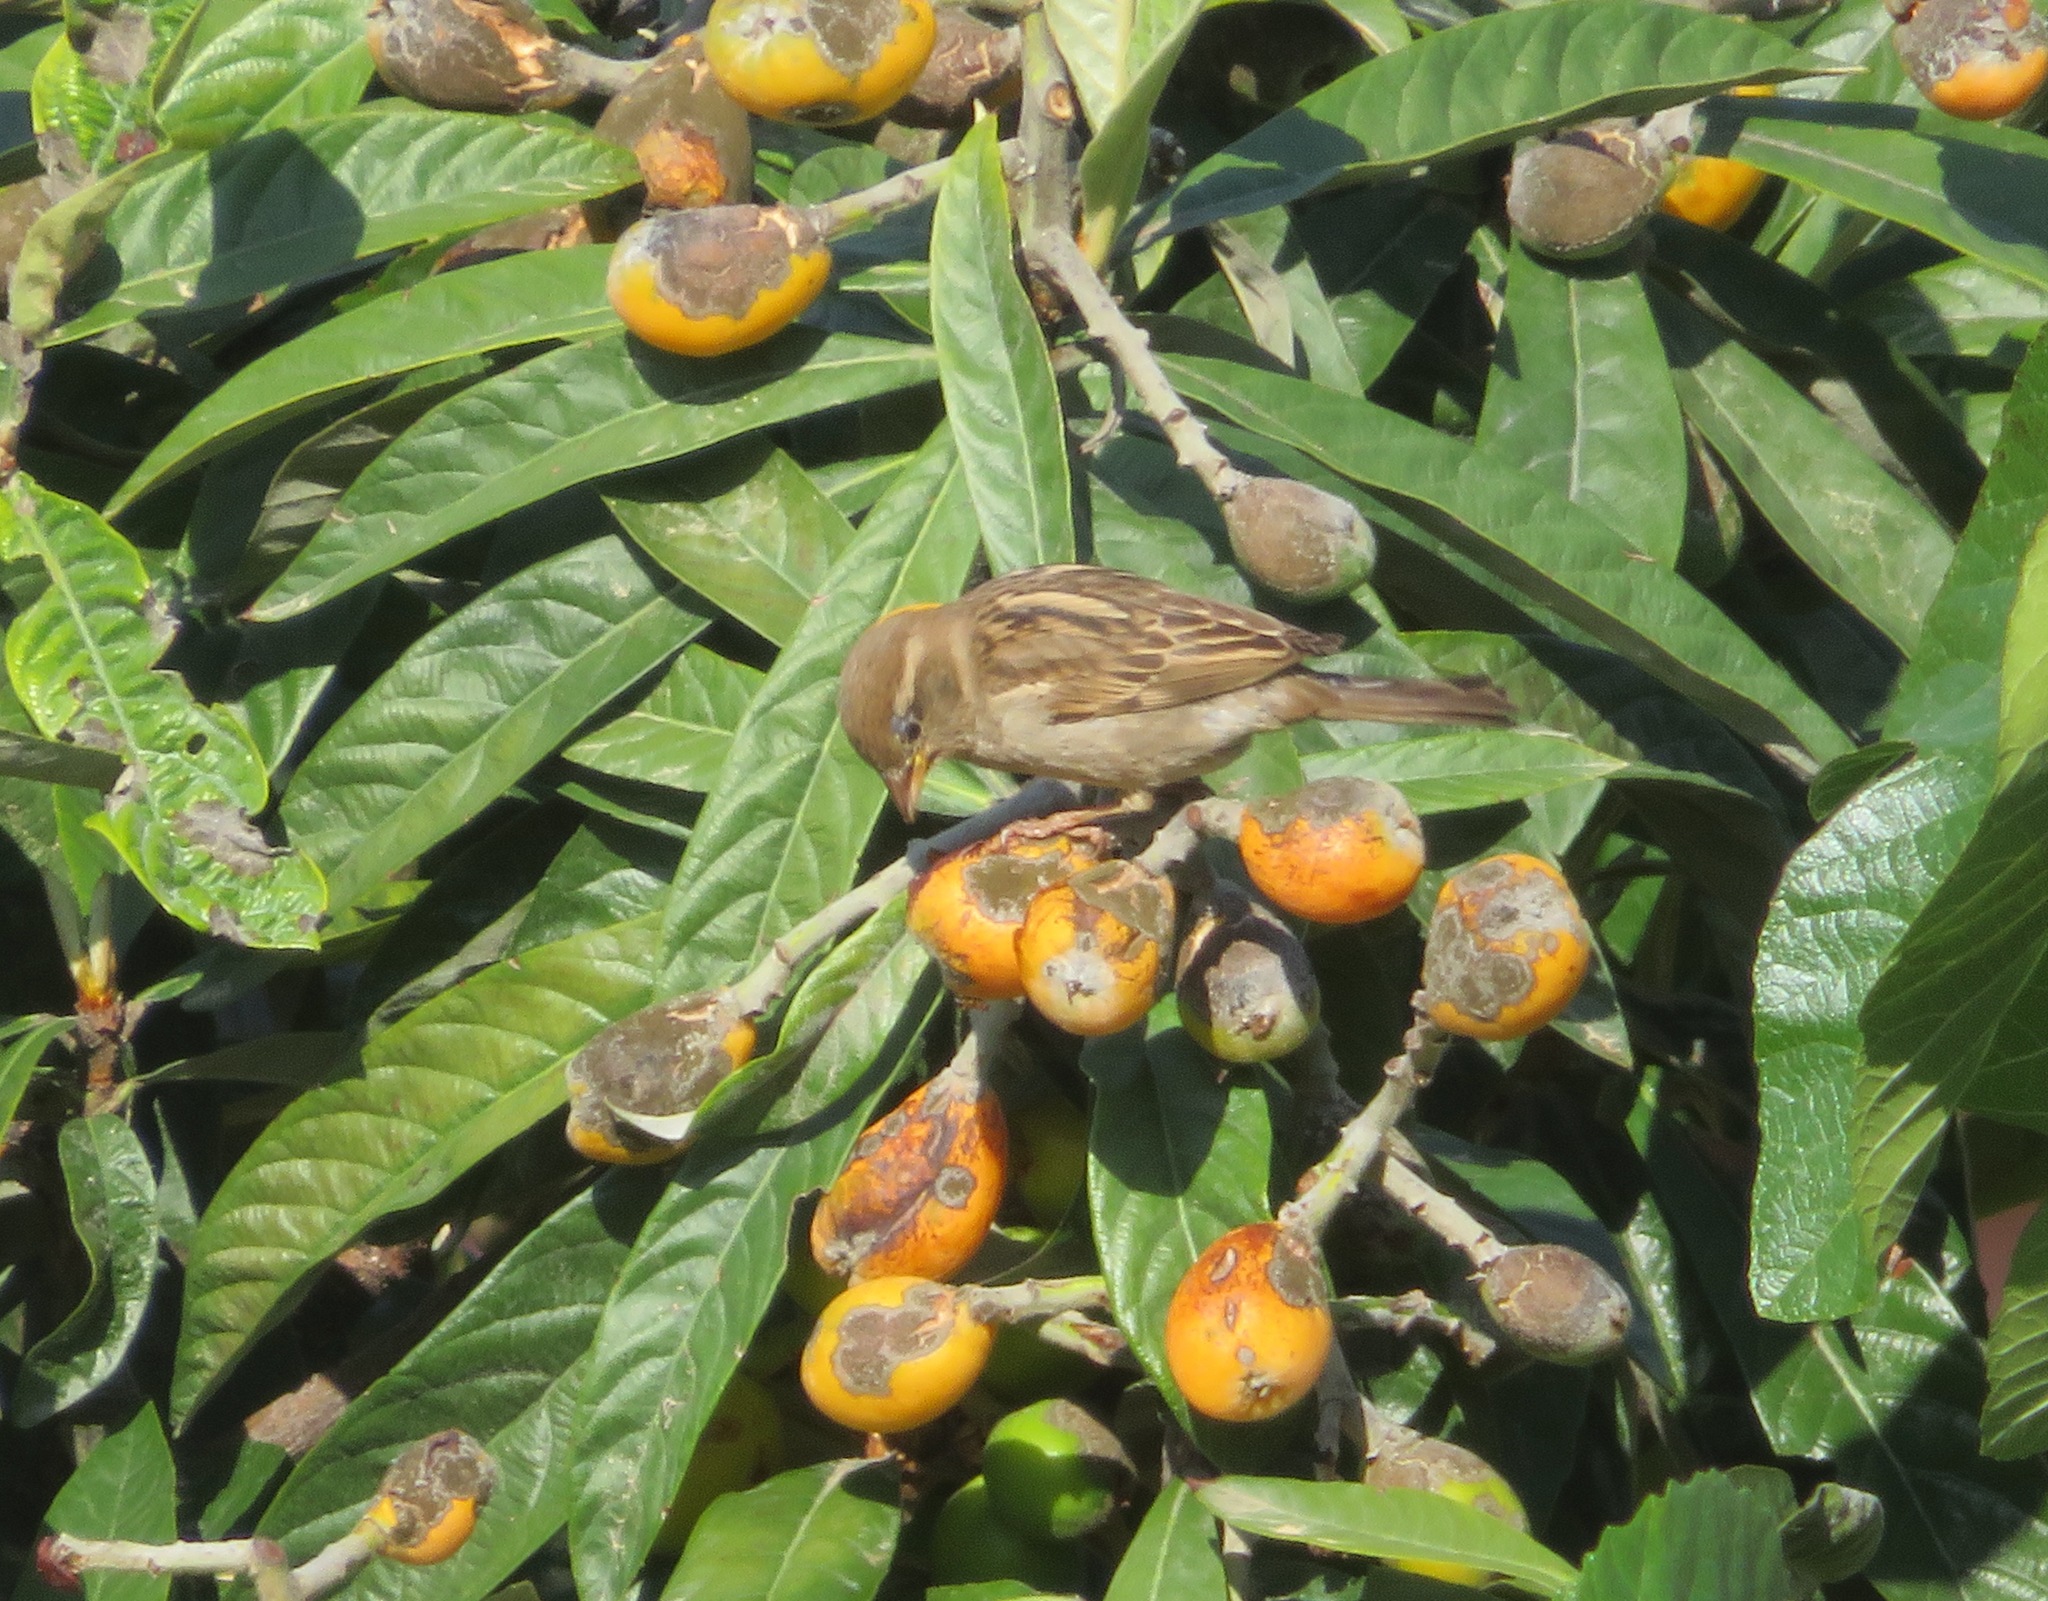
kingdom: Animalia
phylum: Chordata
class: Aves
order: Passeriformes
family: Passeridae
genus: Passer
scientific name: Passer italiae
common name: Italian sparrow
